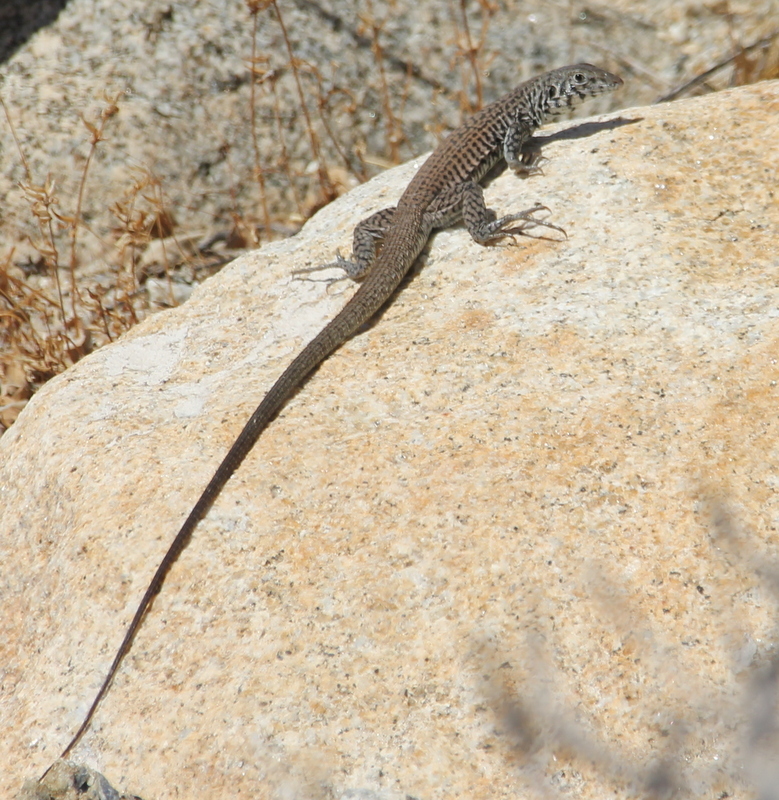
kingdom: Animalia
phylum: Chordata
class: Squamata
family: Teiidae
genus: Aspidoscelis
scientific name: Aspidoscelis tigris
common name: Tiger whiptail
